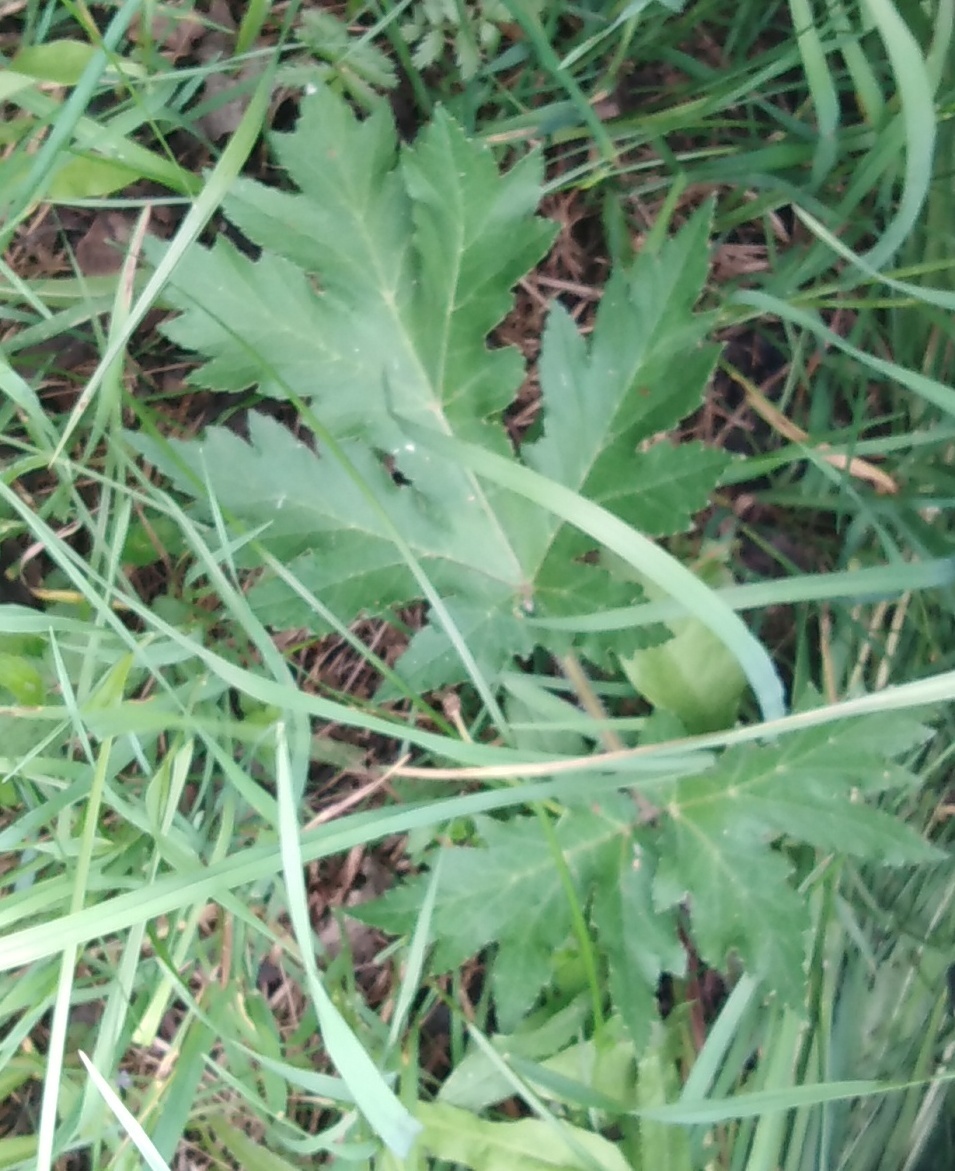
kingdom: Plantae
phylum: Tracheophyta
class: Magnoliopsida
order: Apiales
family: Apiaceae
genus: Heracleum
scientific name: Heracleum sphondylium
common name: Hogweed
